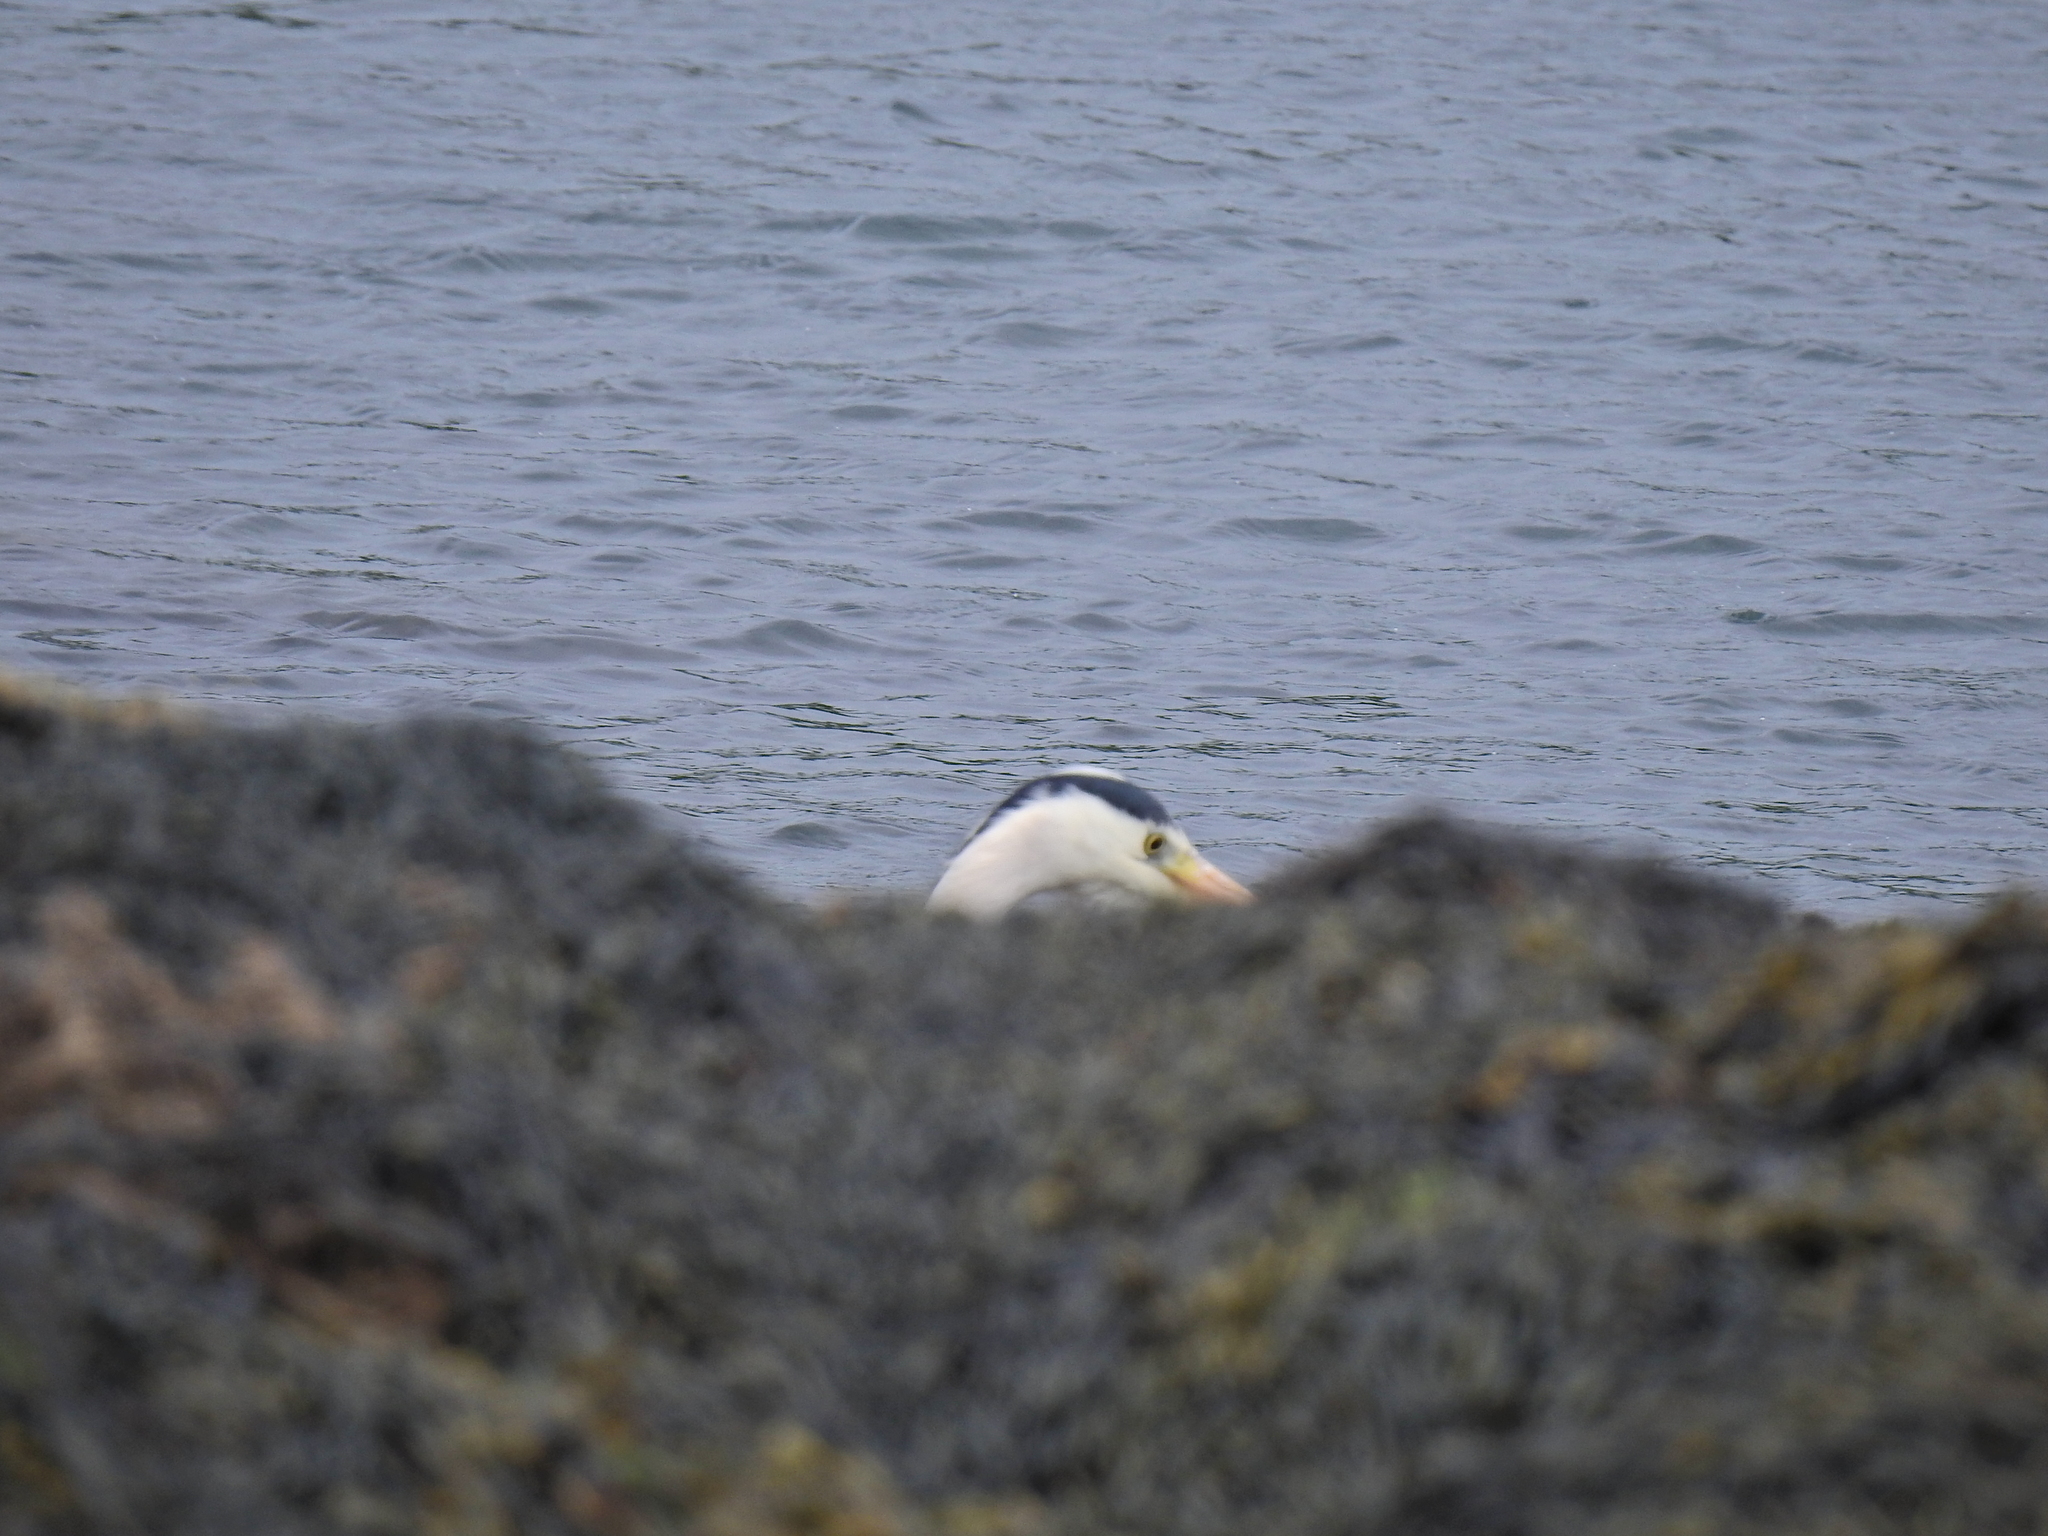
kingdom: Animalia
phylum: Chordata
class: Aves
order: Pelecaniformes
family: Ardeidae
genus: Ardea
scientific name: Ardea cinerea
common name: Grey heron
